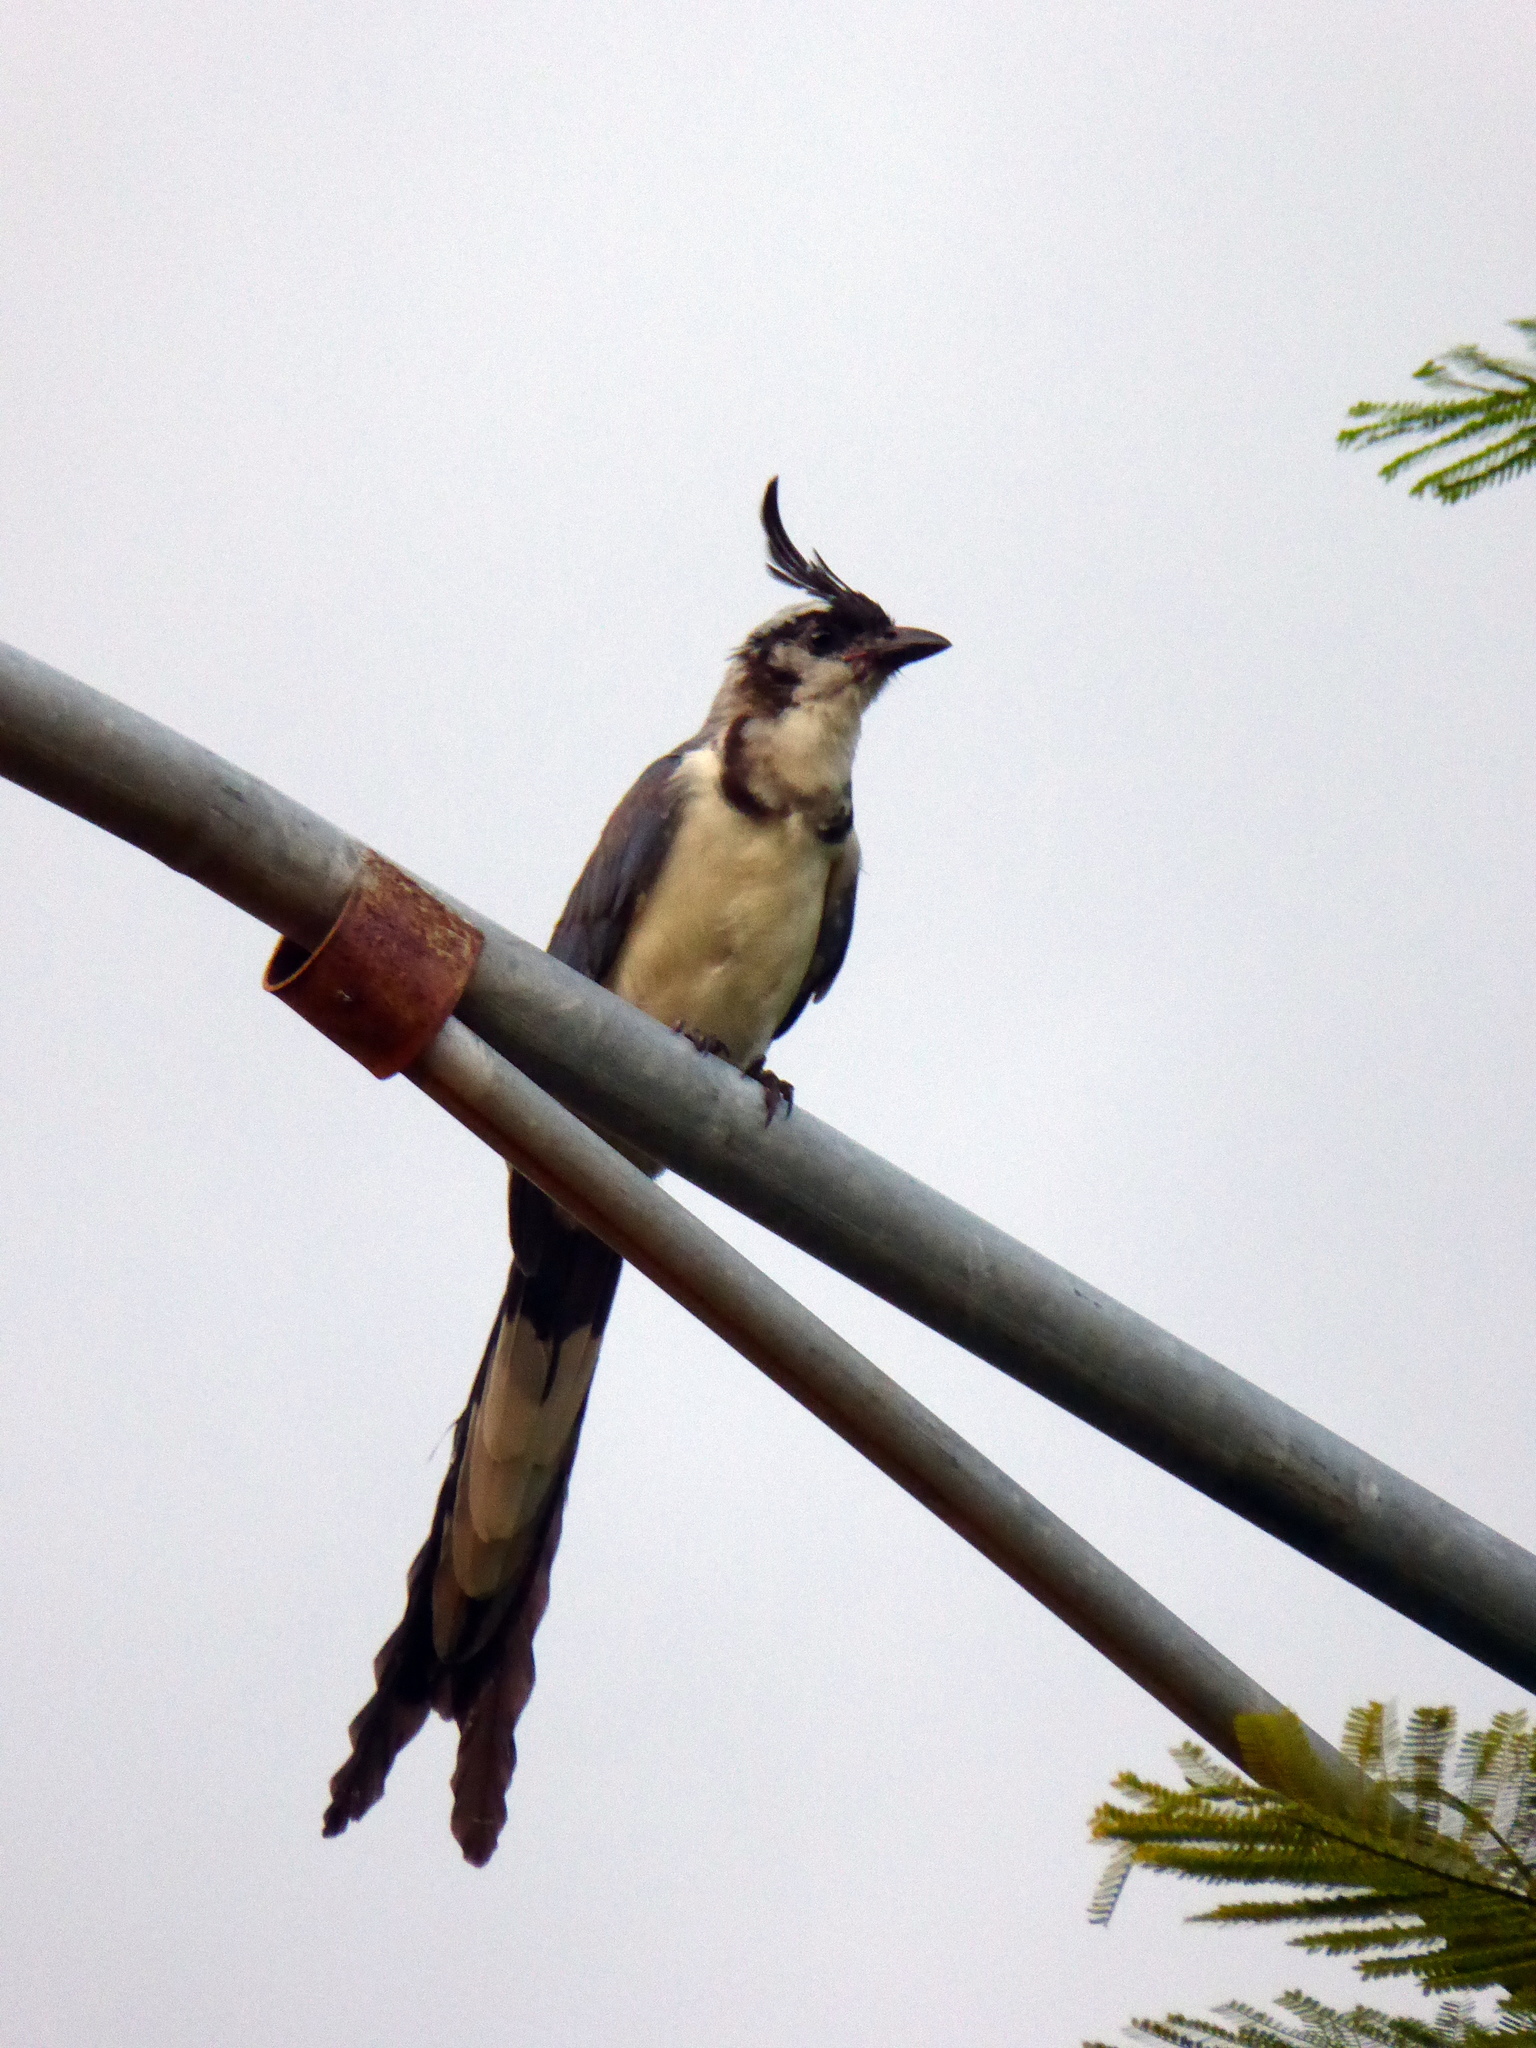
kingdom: Animalia
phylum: Chordata
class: Aves
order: Passeriformes
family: Corvidae
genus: Calocitta
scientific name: Calocitta formosa
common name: White-throated magpie-jay
